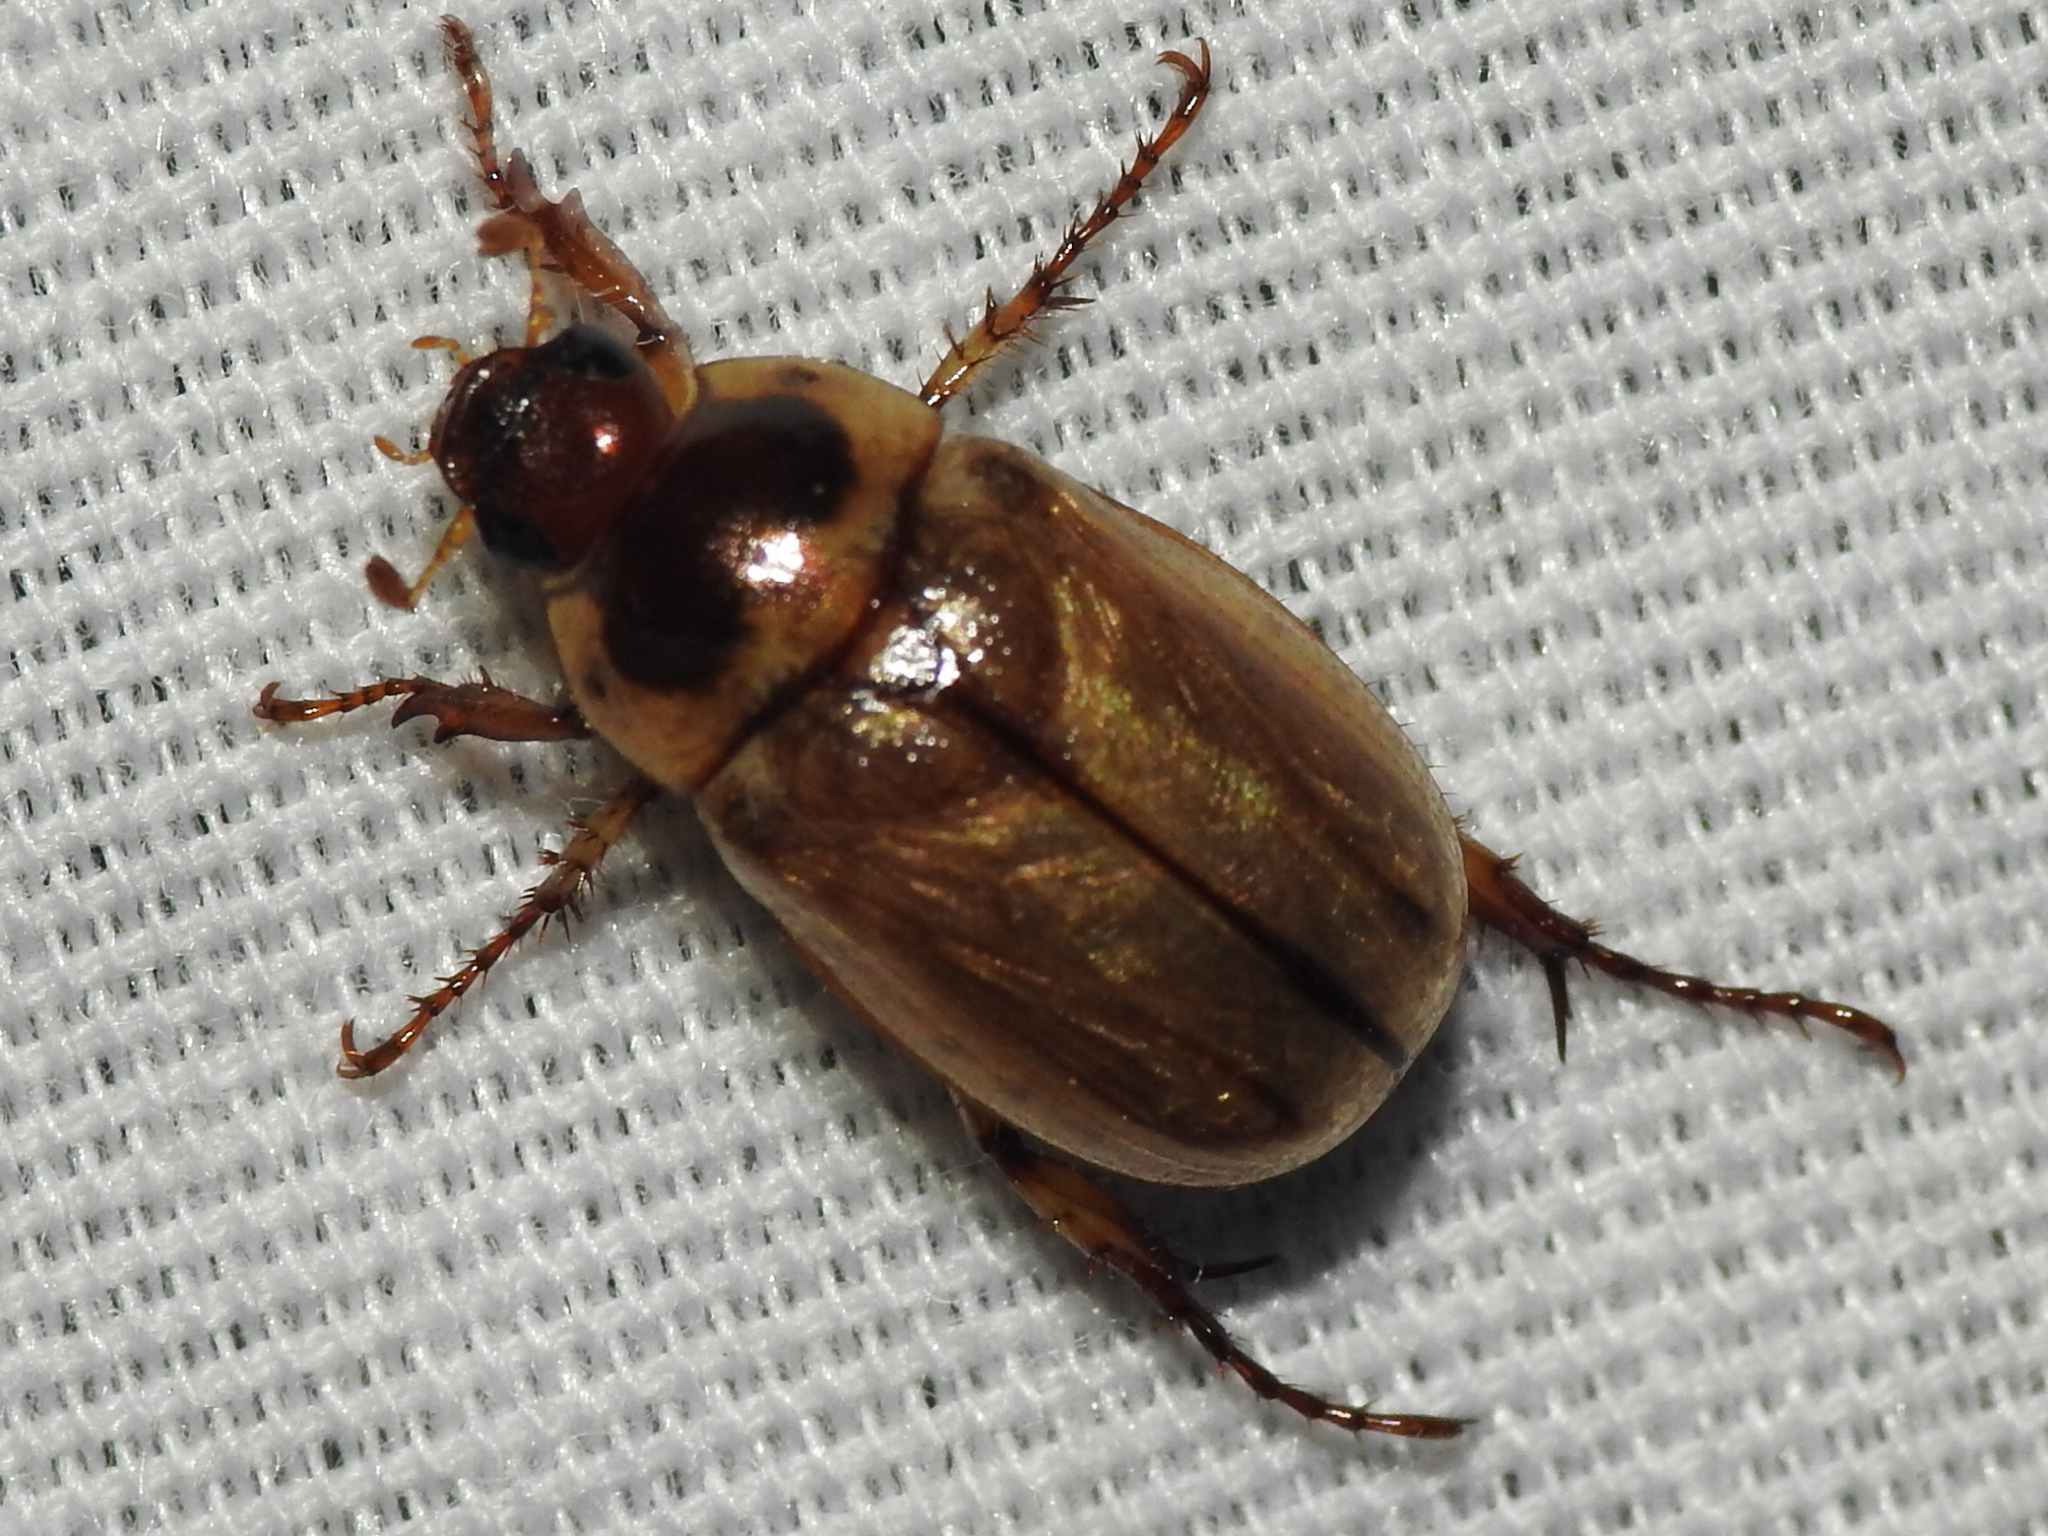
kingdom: Animalia
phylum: Arthropoda
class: Insecta
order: Coleoptera
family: Scarabaeidae
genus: Cyclocephala
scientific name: Cyclocephala lurida
